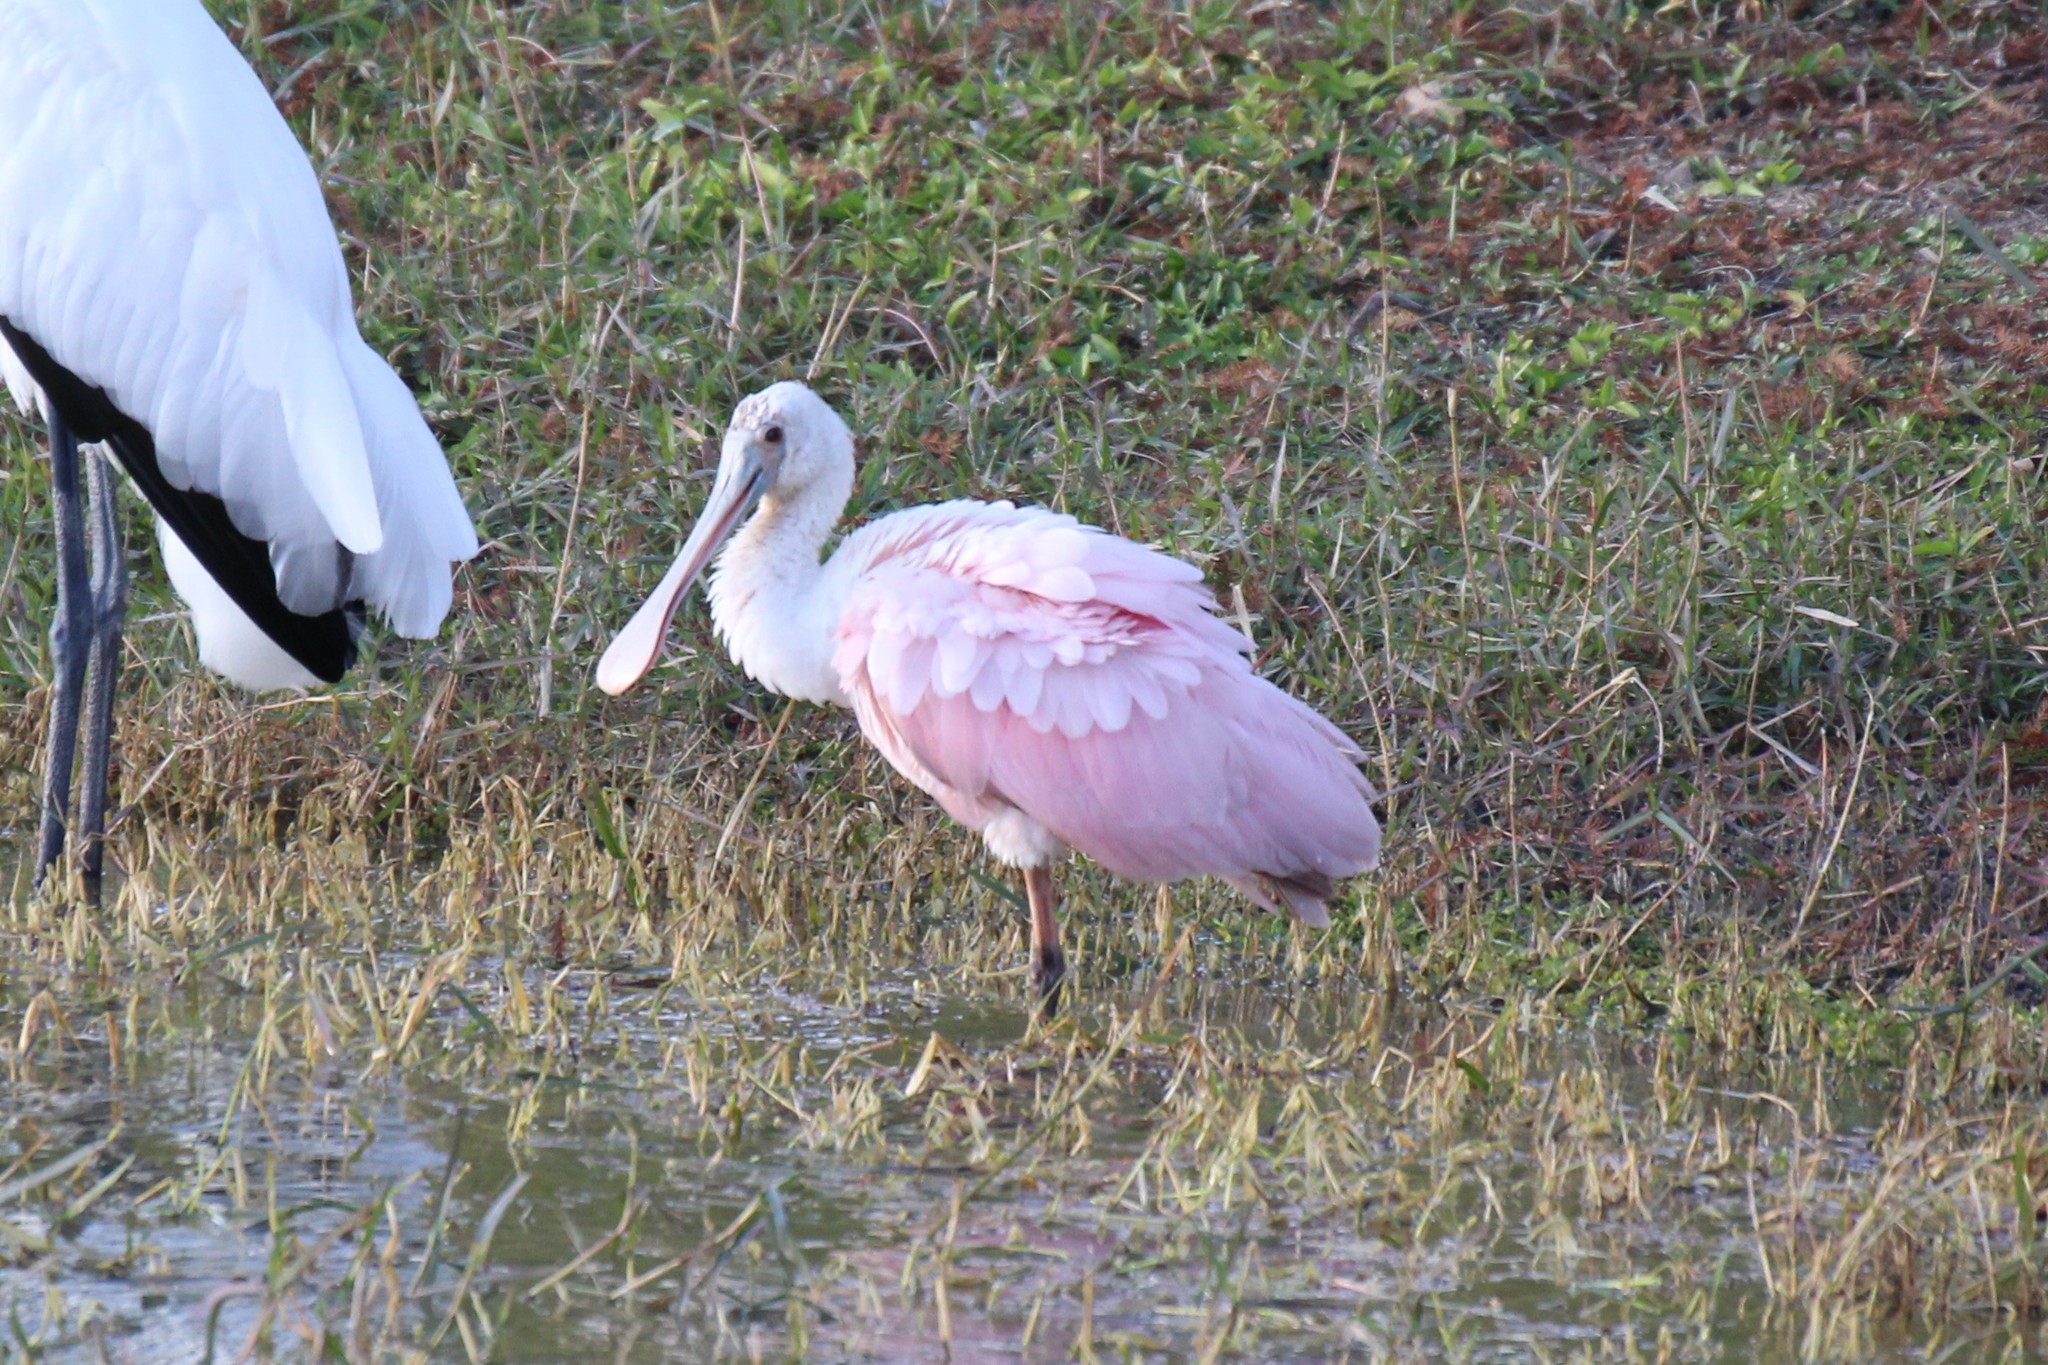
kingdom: Animalia
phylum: Chordata
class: Aves
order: Pelecaniformes
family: Threskiornithidae
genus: Platalea
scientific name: Platalea ajaja
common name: Roseate spoonbill
